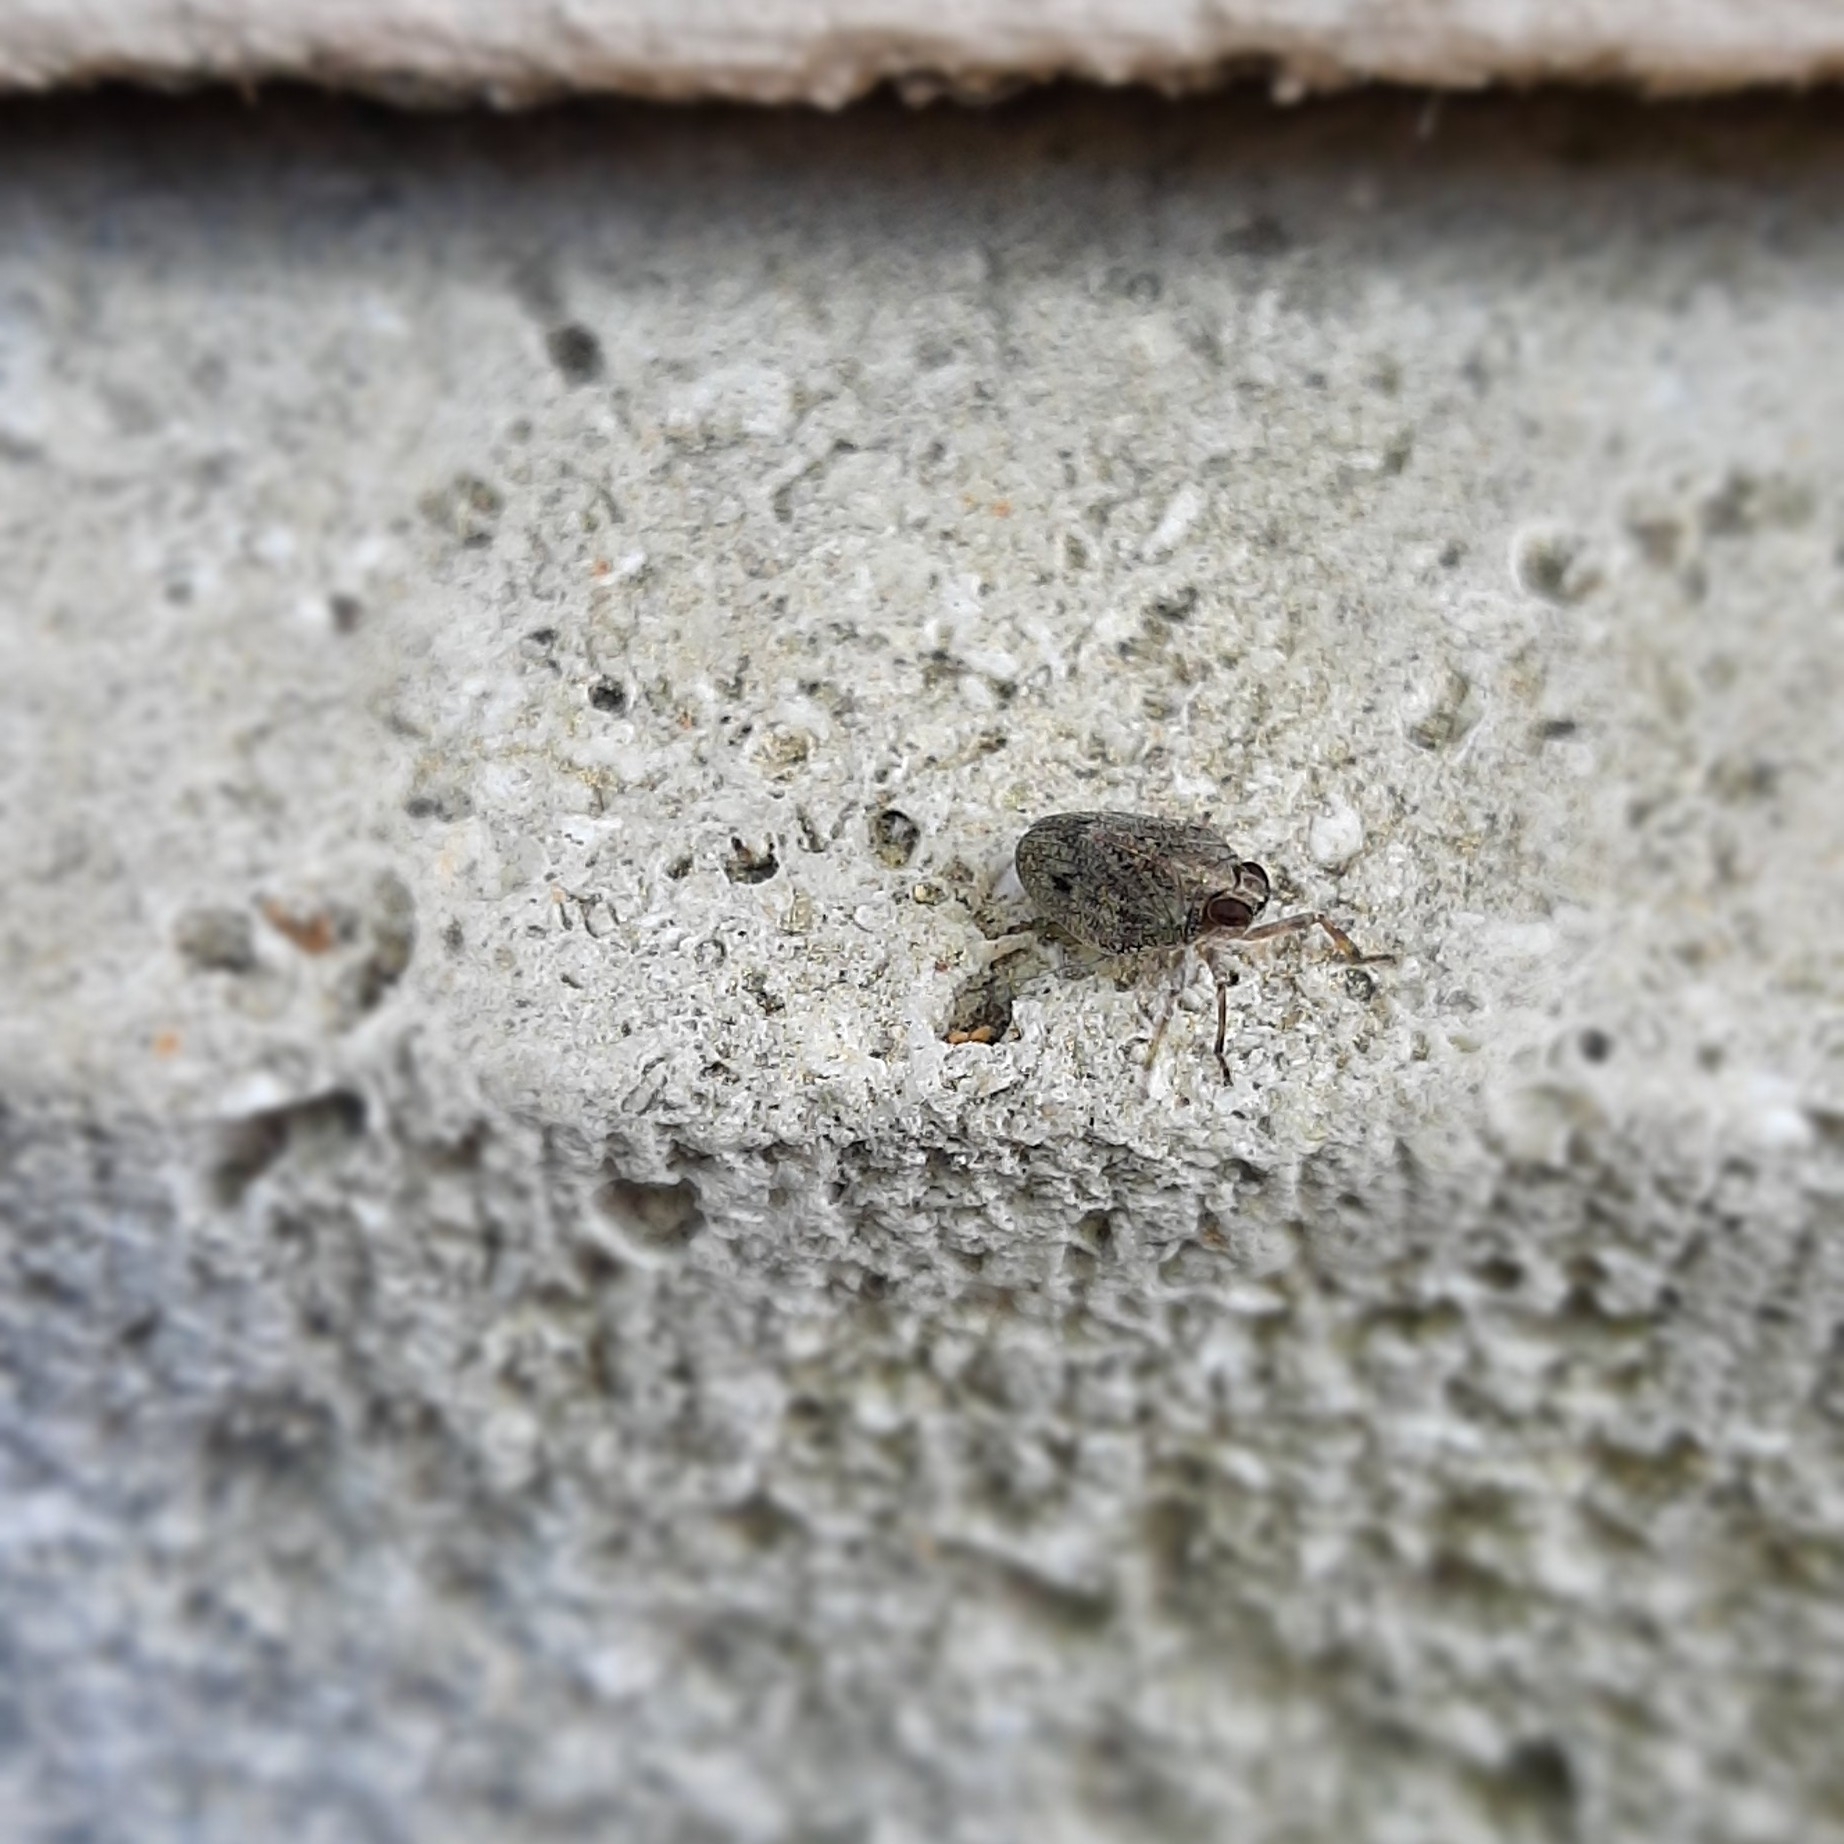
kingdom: Animalia
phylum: Arthropoda
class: Insecta
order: Hemiptera
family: Issidae
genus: Issus
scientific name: Issus coleoptratus
